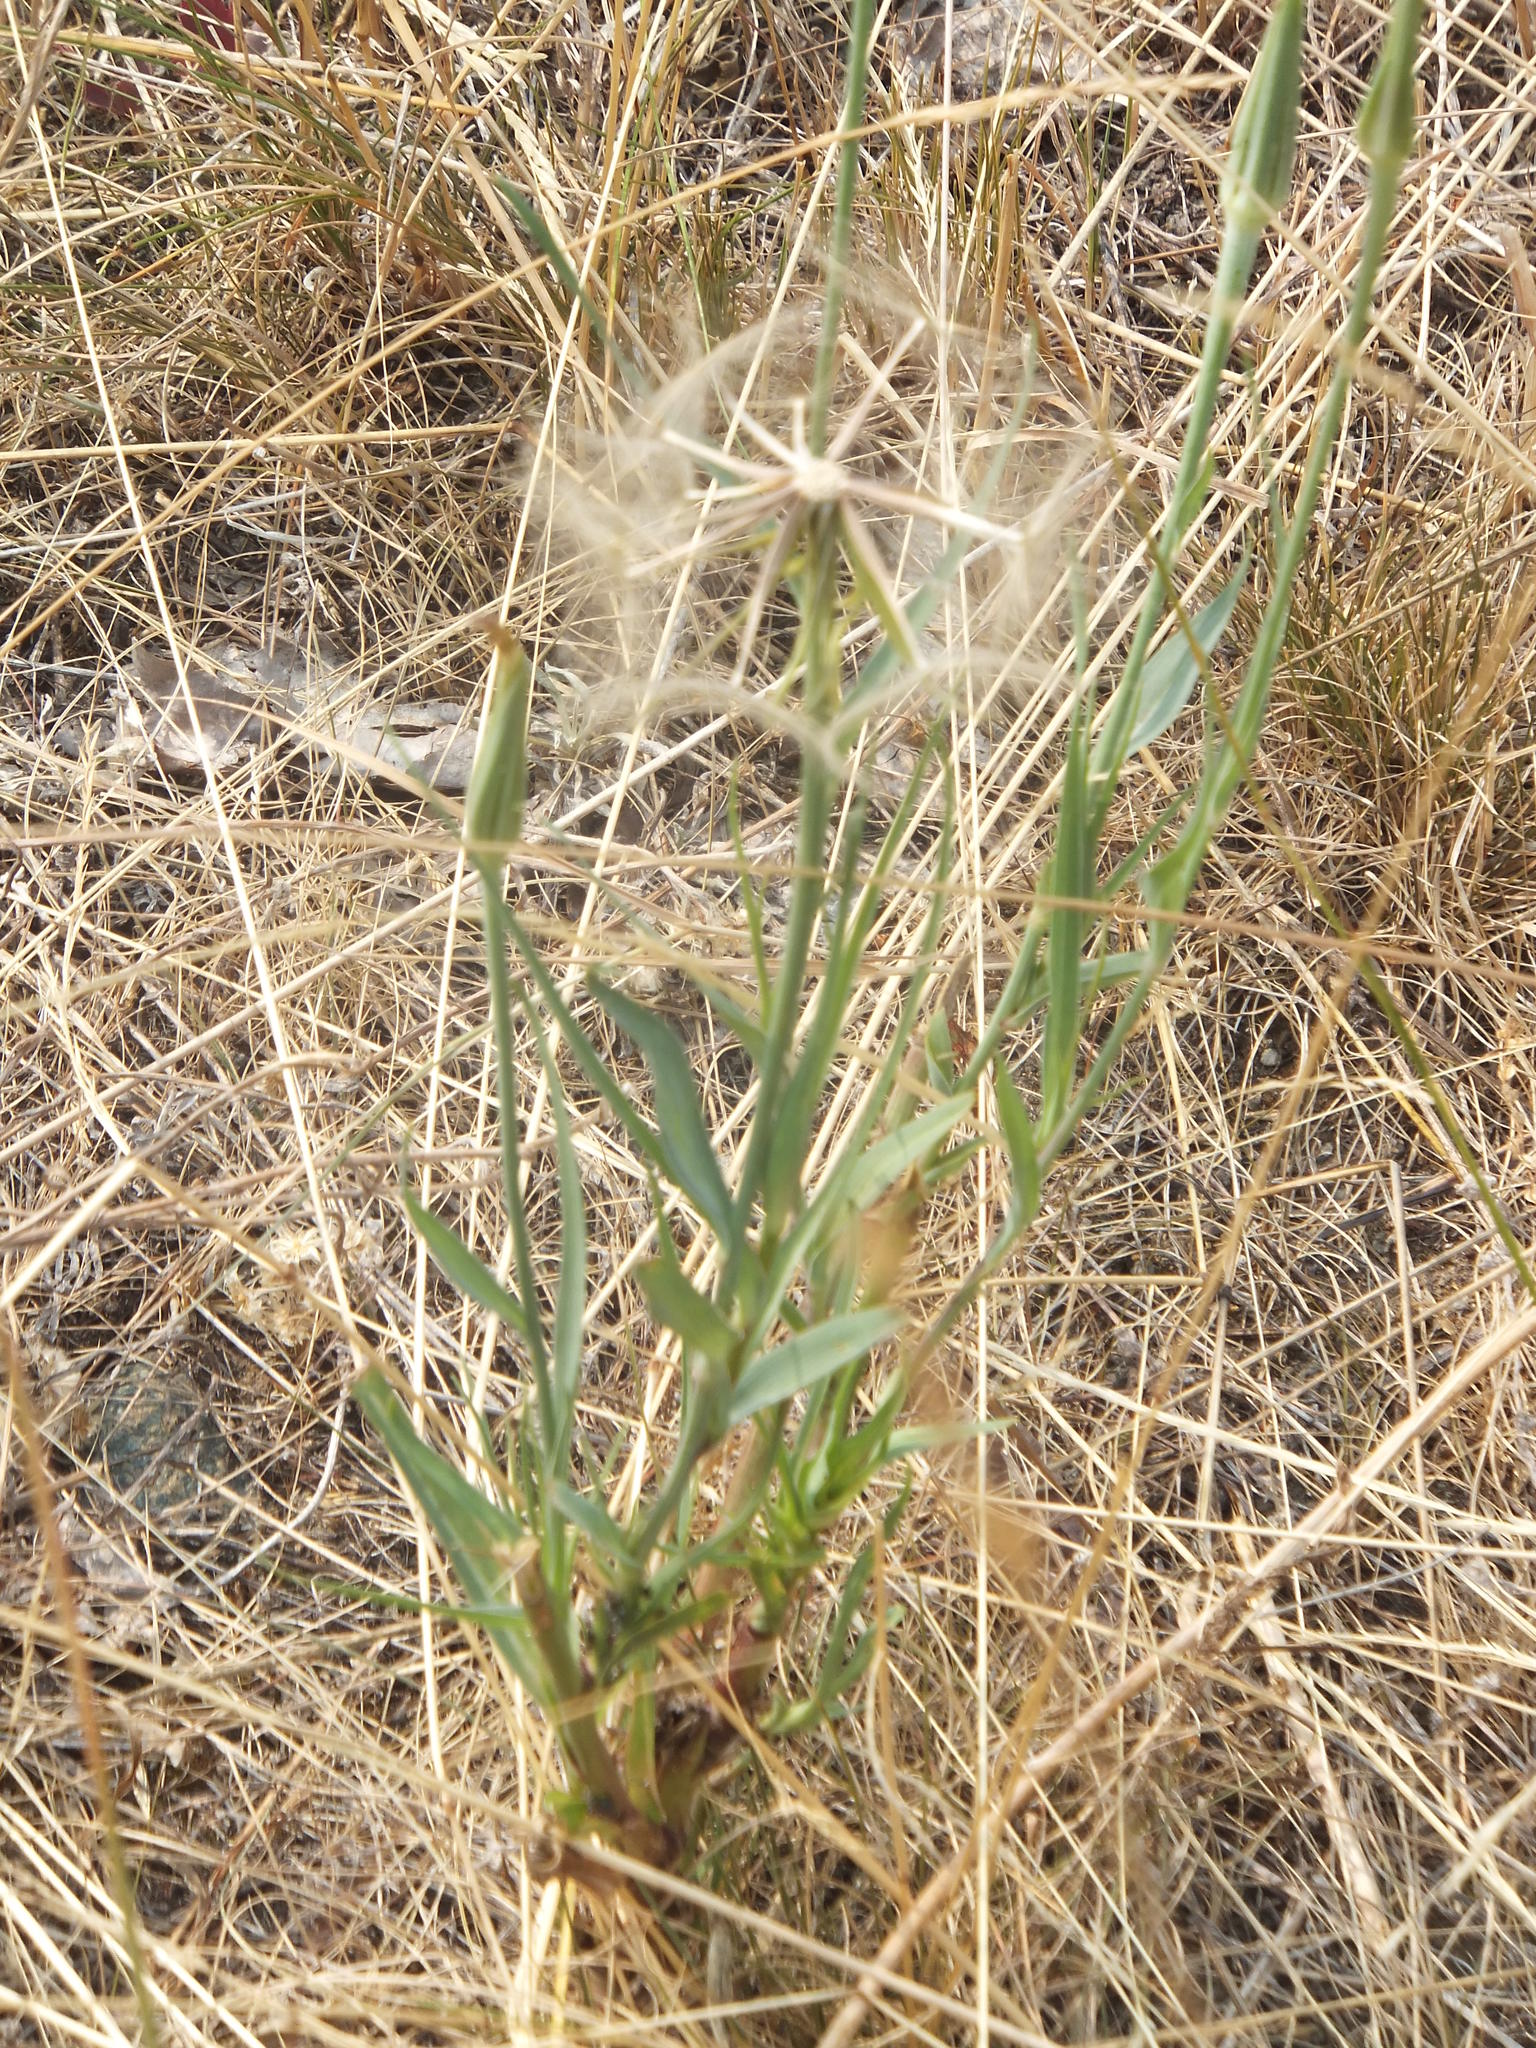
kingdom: Plantae
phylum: Tracheophyta
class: Magnoliopsida
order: Asterales
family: Asteraceae
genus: Tragopogon
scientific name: Tragopogon dubius
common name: Yellow salsify
